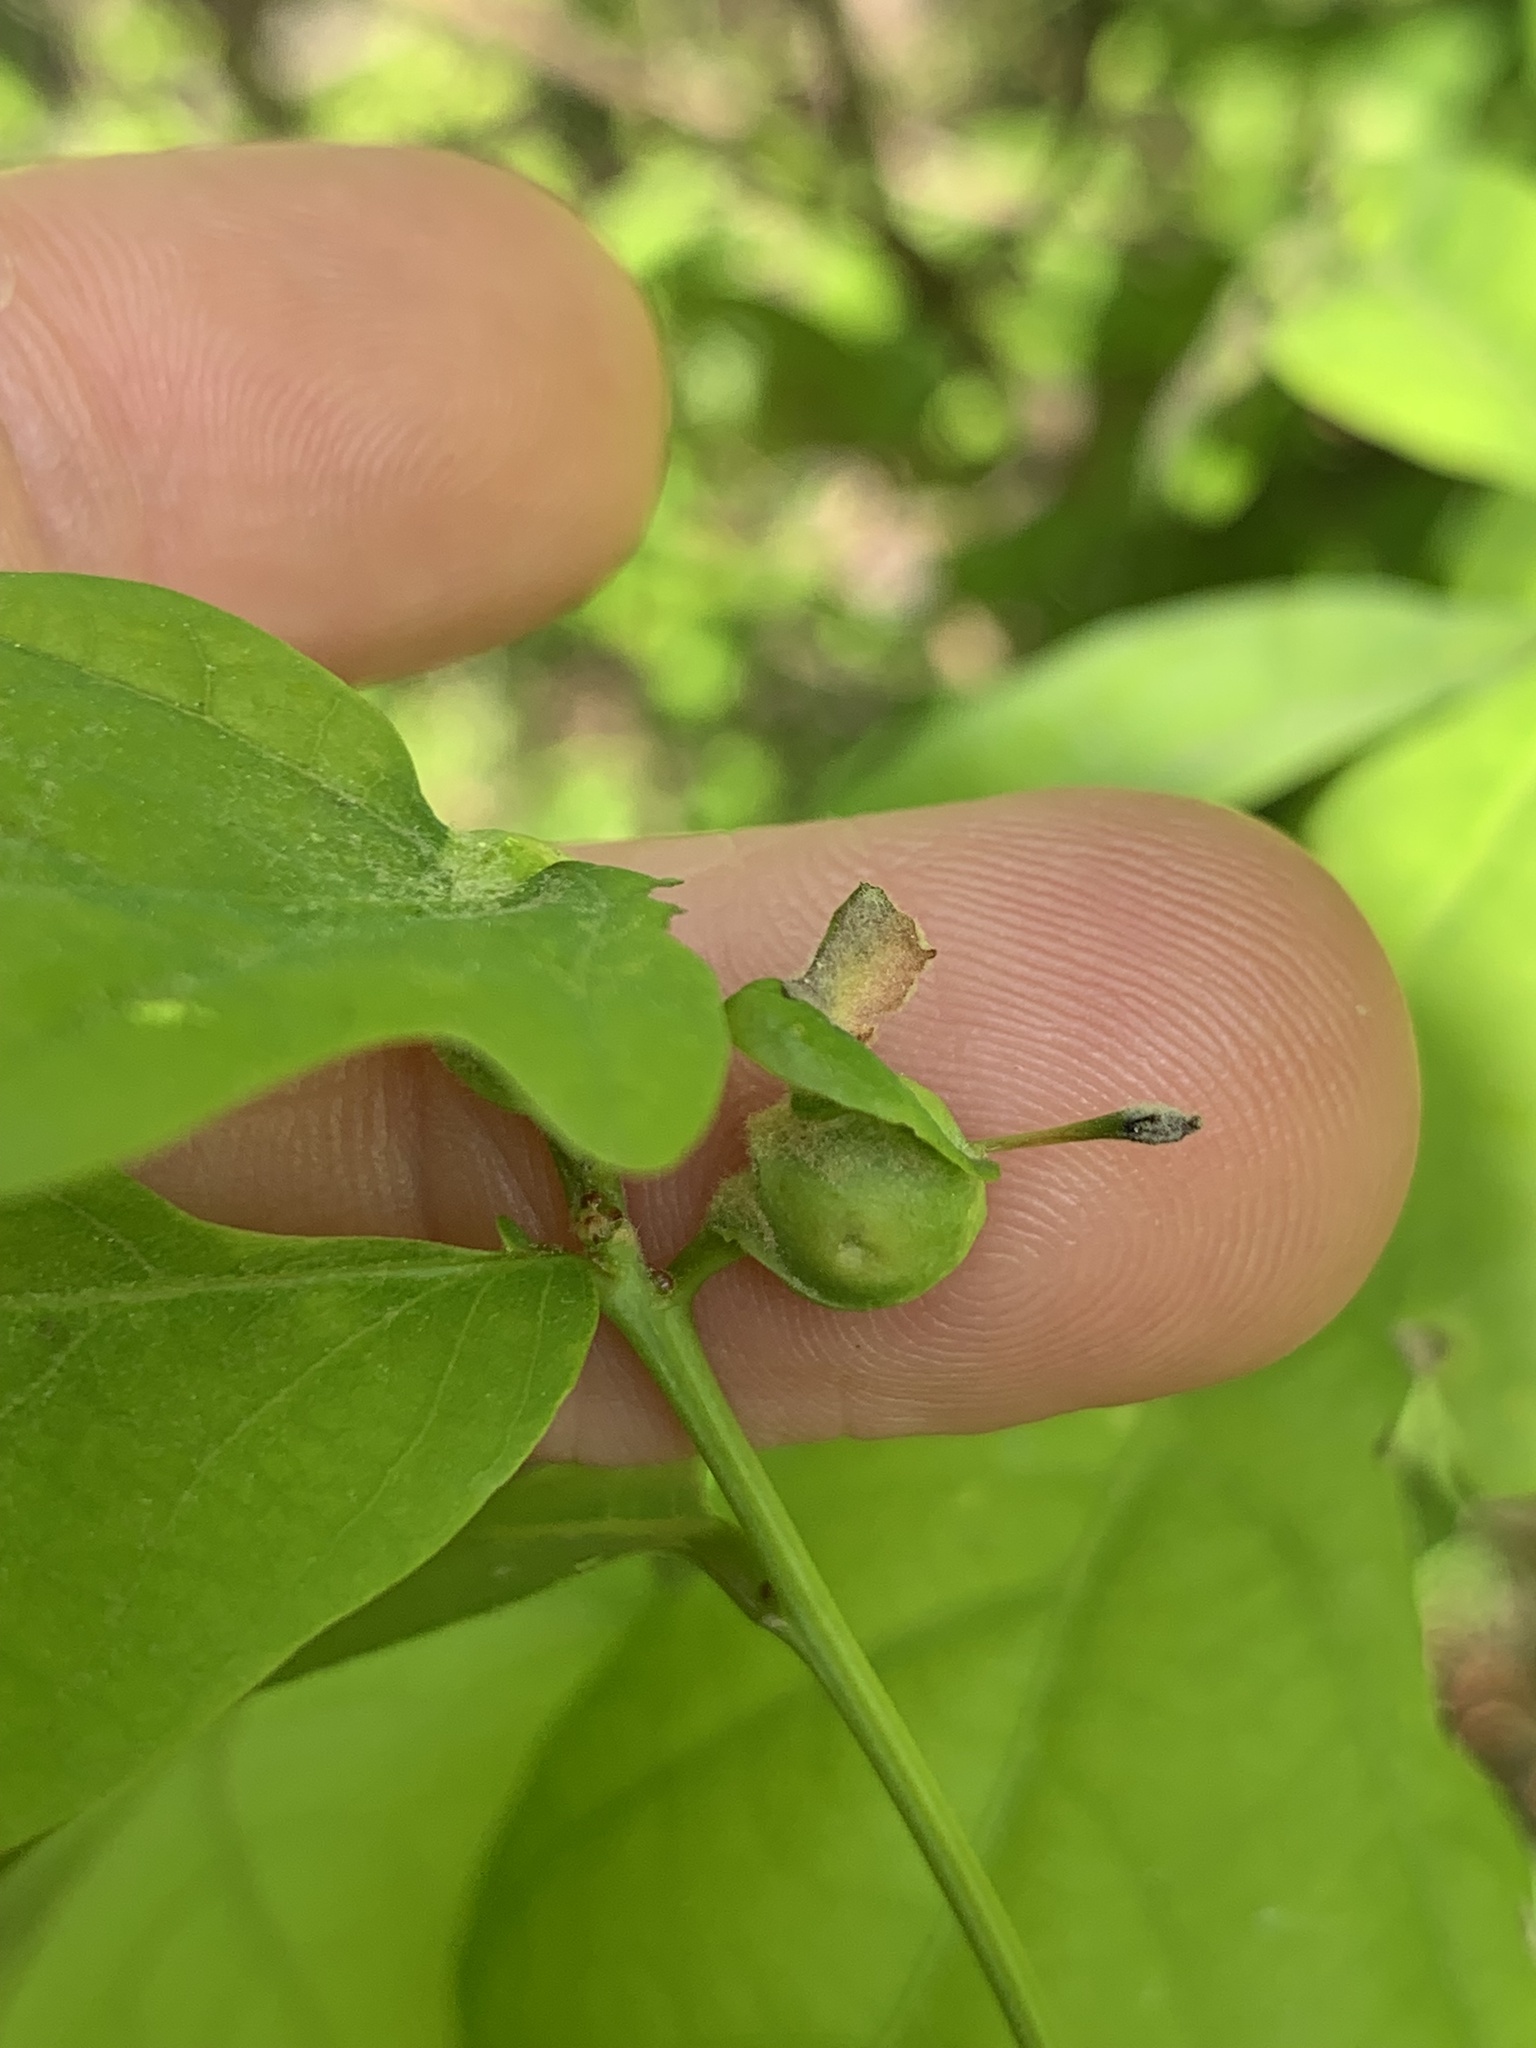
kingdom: Animalia
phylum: Arthropoda
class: Insecta
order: Hymenoptera
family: Cynipidae
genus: Andricus
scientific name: Andricus
